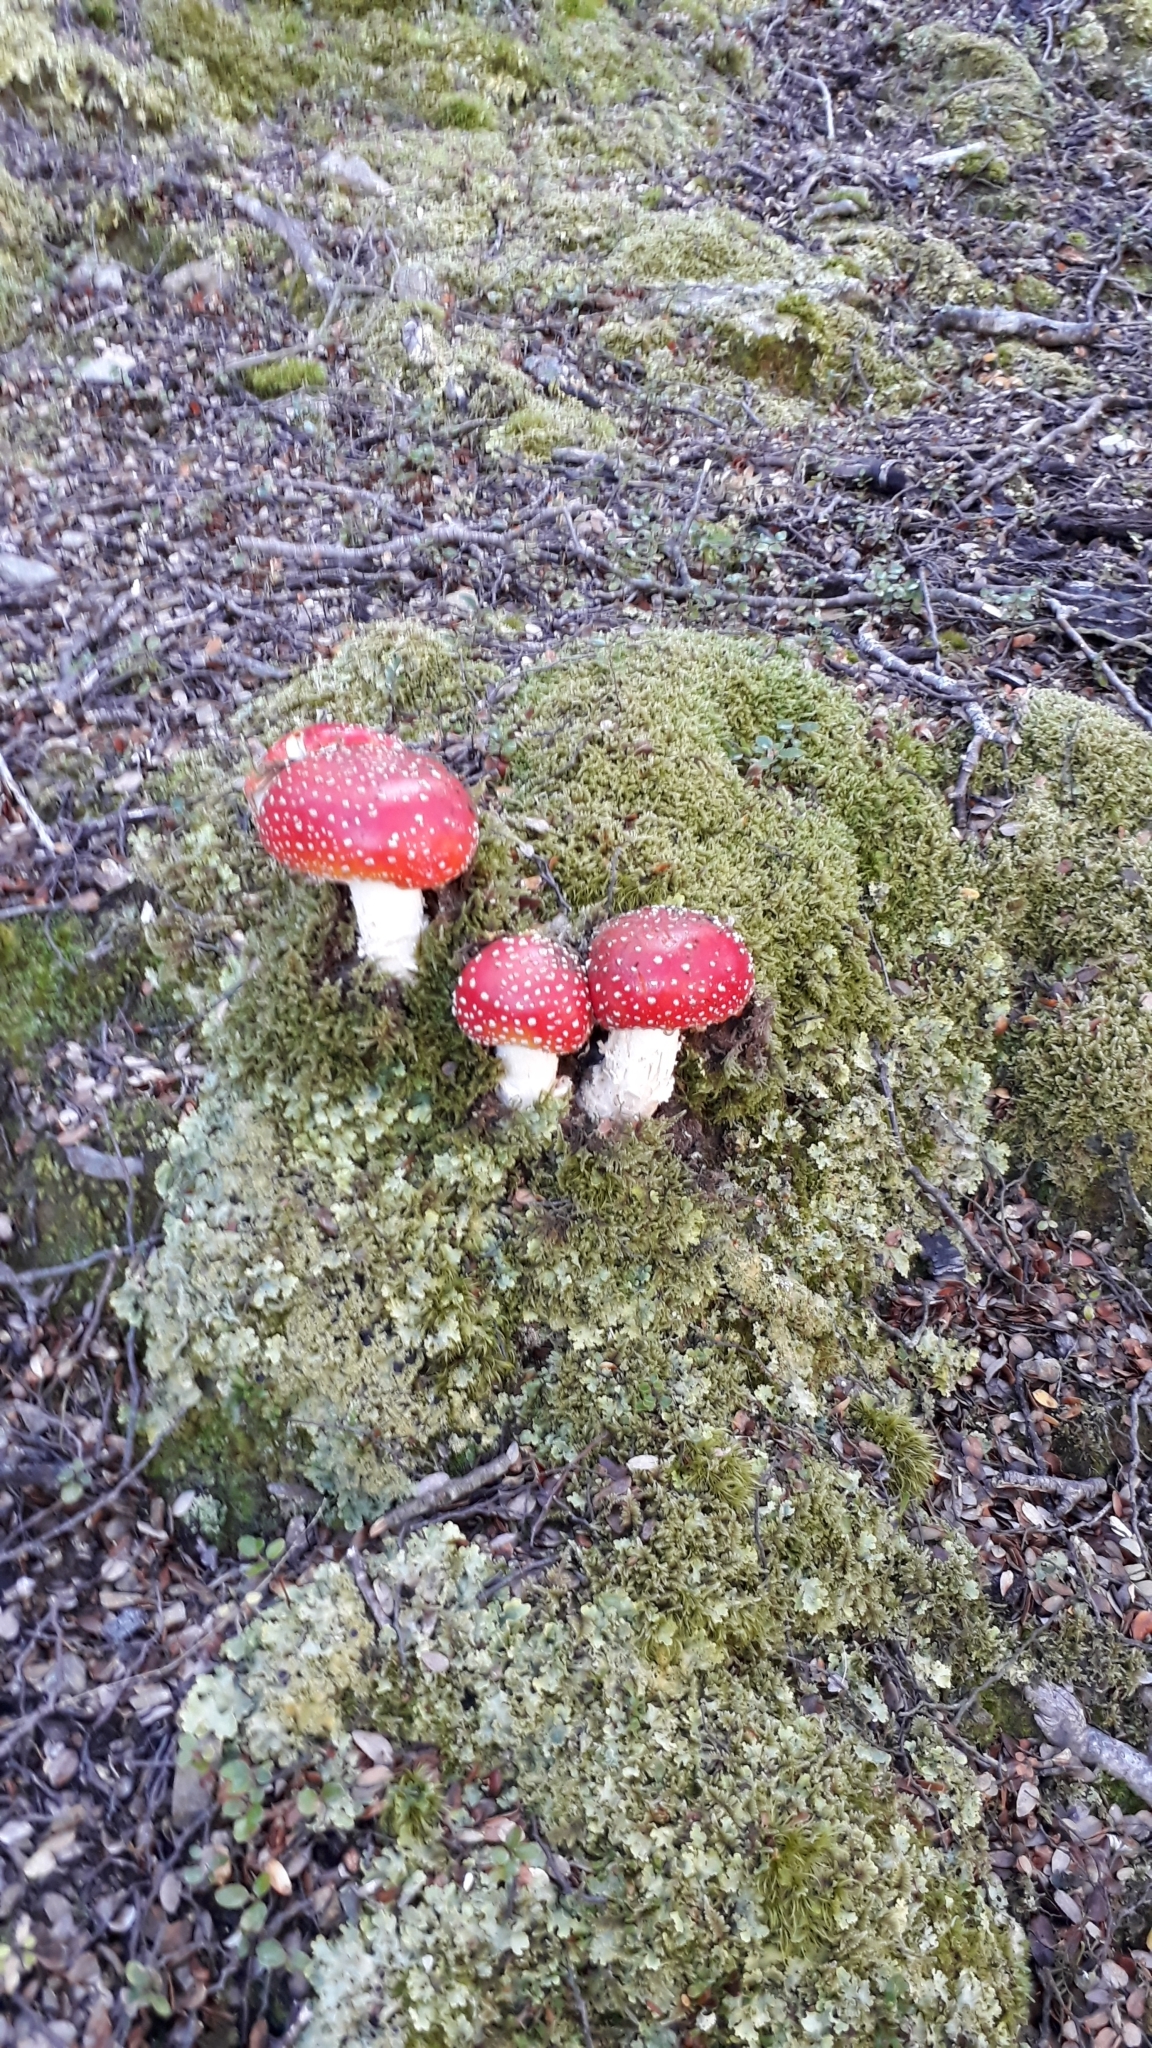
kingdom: Fungi
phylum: Basidiomycota
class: Agaricomycetes
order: Agaricales
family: Amanitaceae
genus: Amanita
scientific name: Amanita muscaria
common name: Fly agaric
